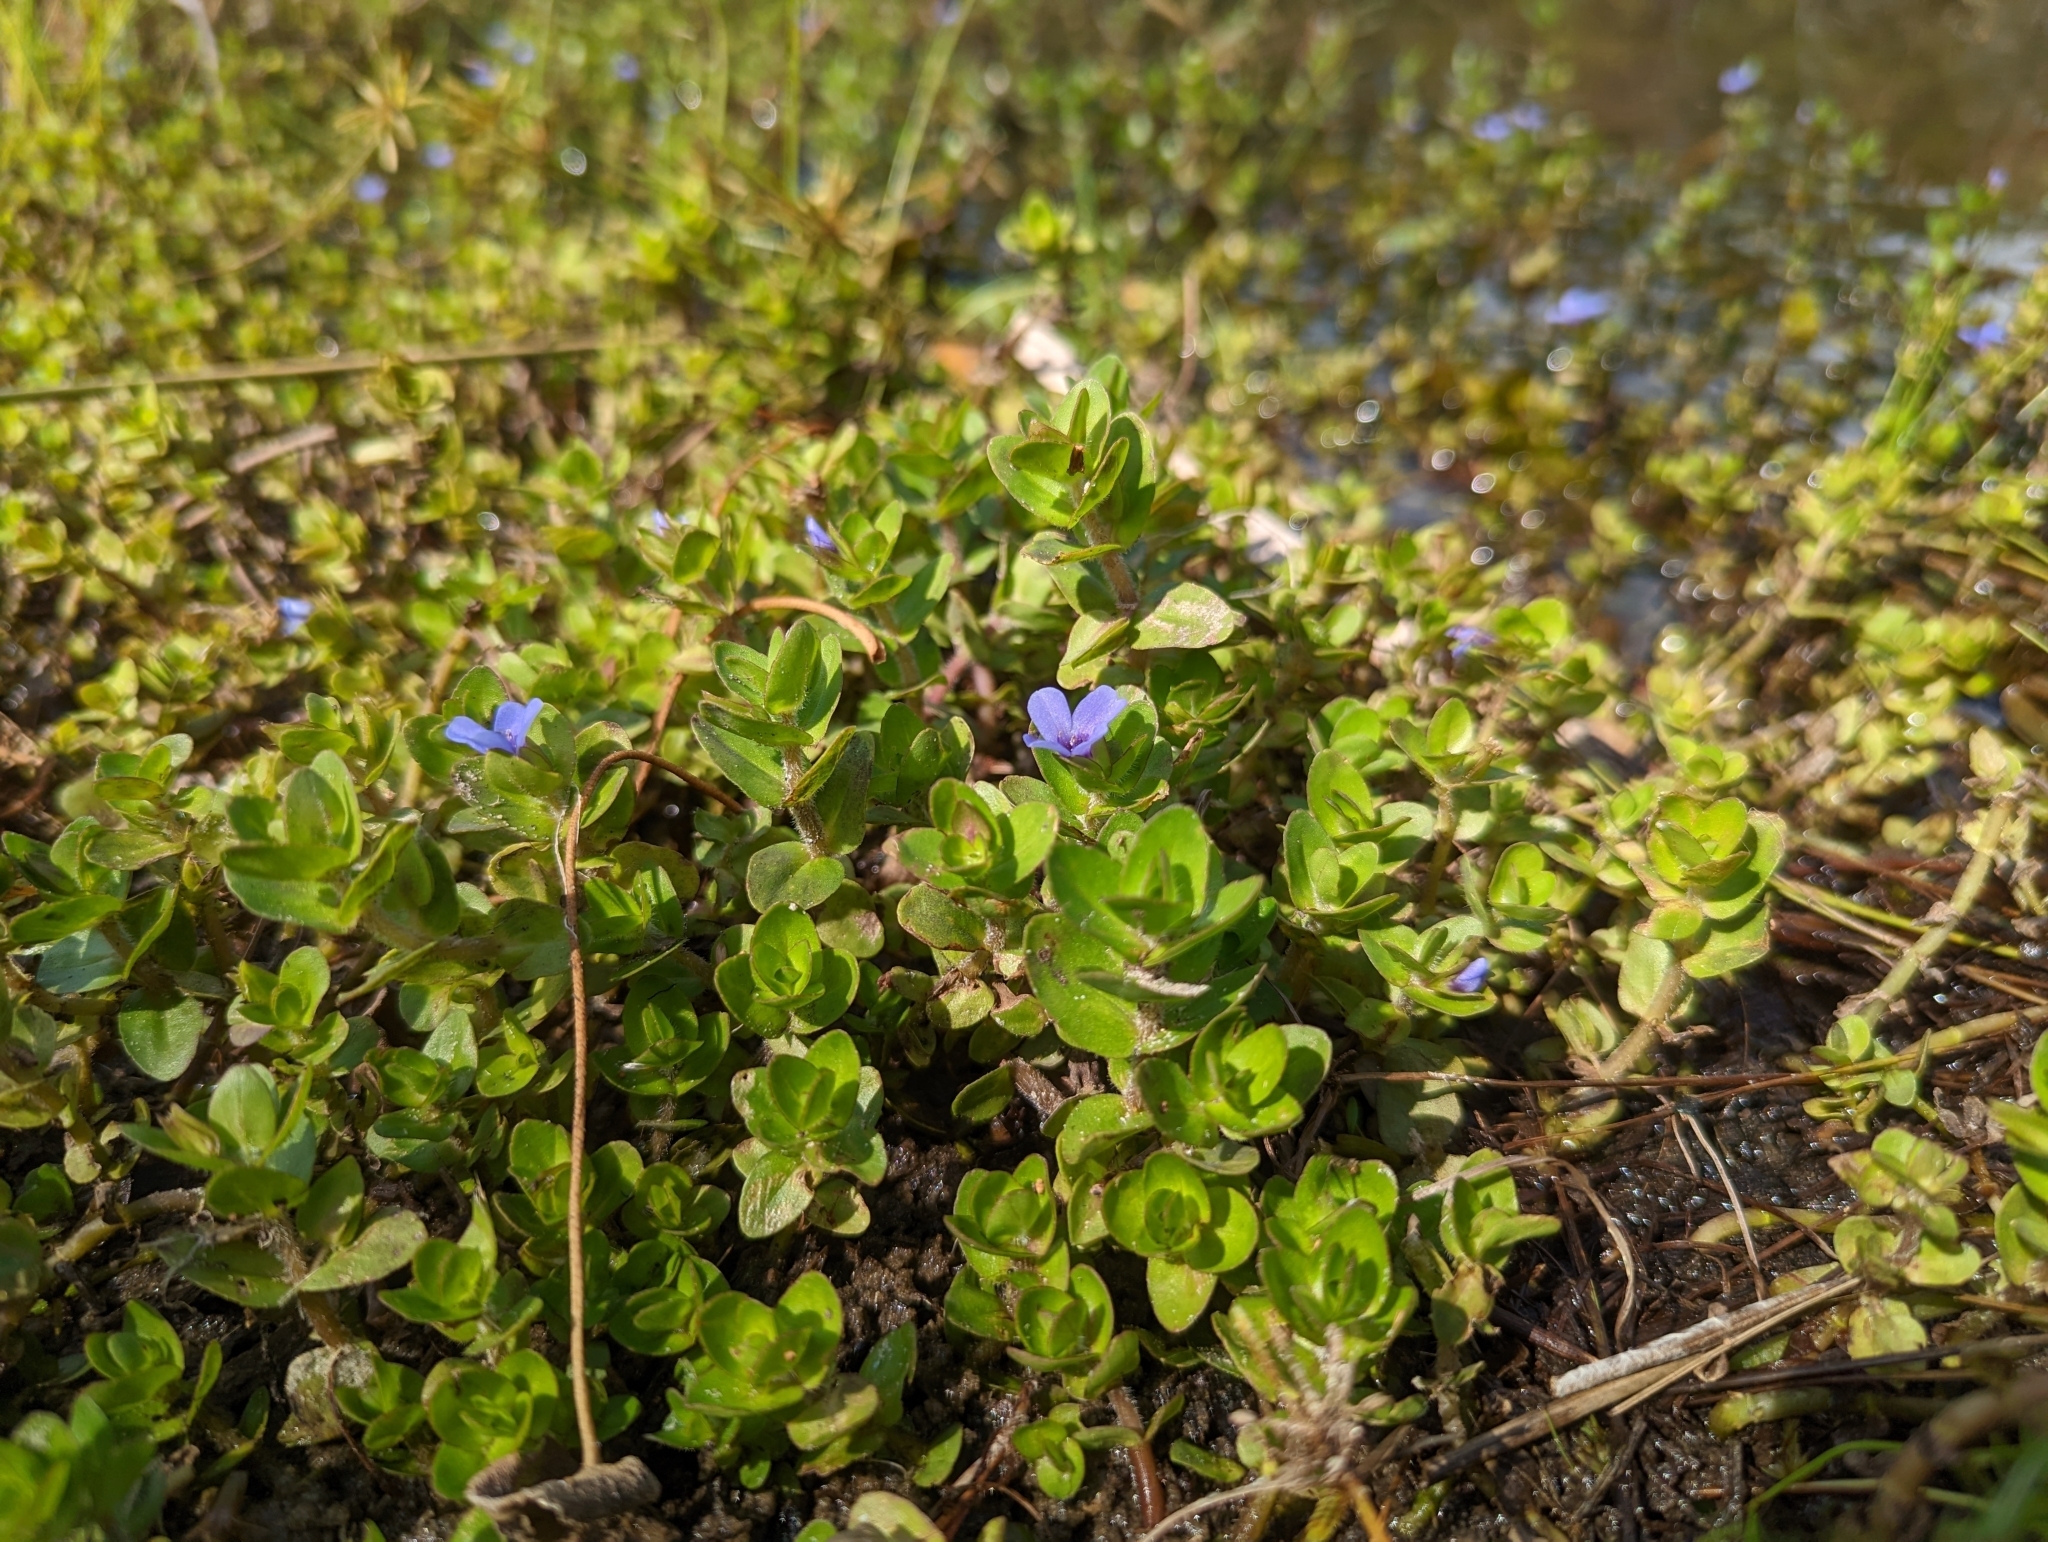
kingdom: Plantae
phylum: Tracheophyta
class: Magnoliopsida
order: Lamiales
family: Plantaginaceae
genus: Bacopa
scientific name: Bacopa caroliniana
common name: Lemon bacopa
